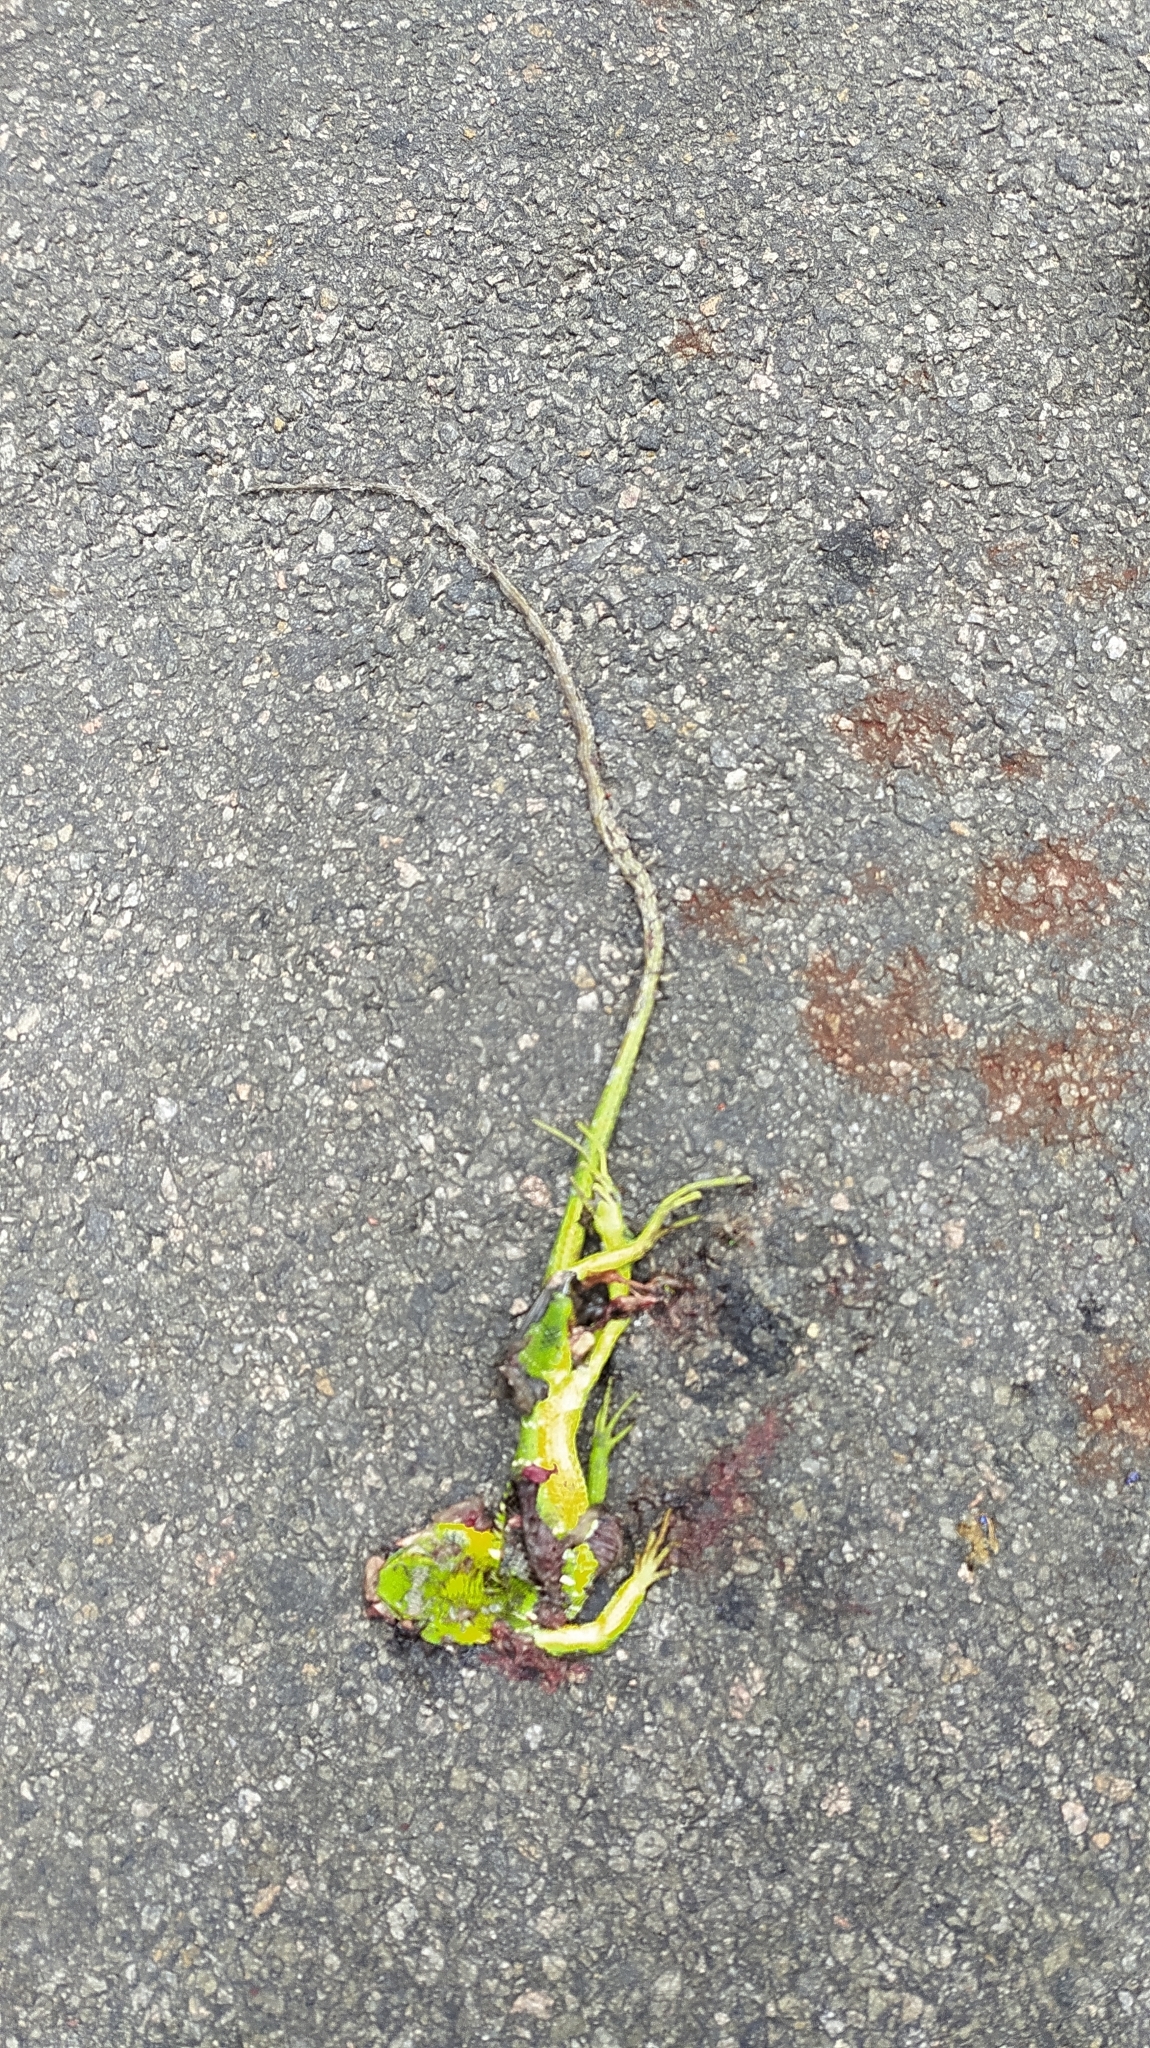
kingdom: Animalia
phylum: Chordata
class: Squamata
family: Agamidae
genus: Calotes
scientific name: Calotes calotes
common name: Common green forest lizard
